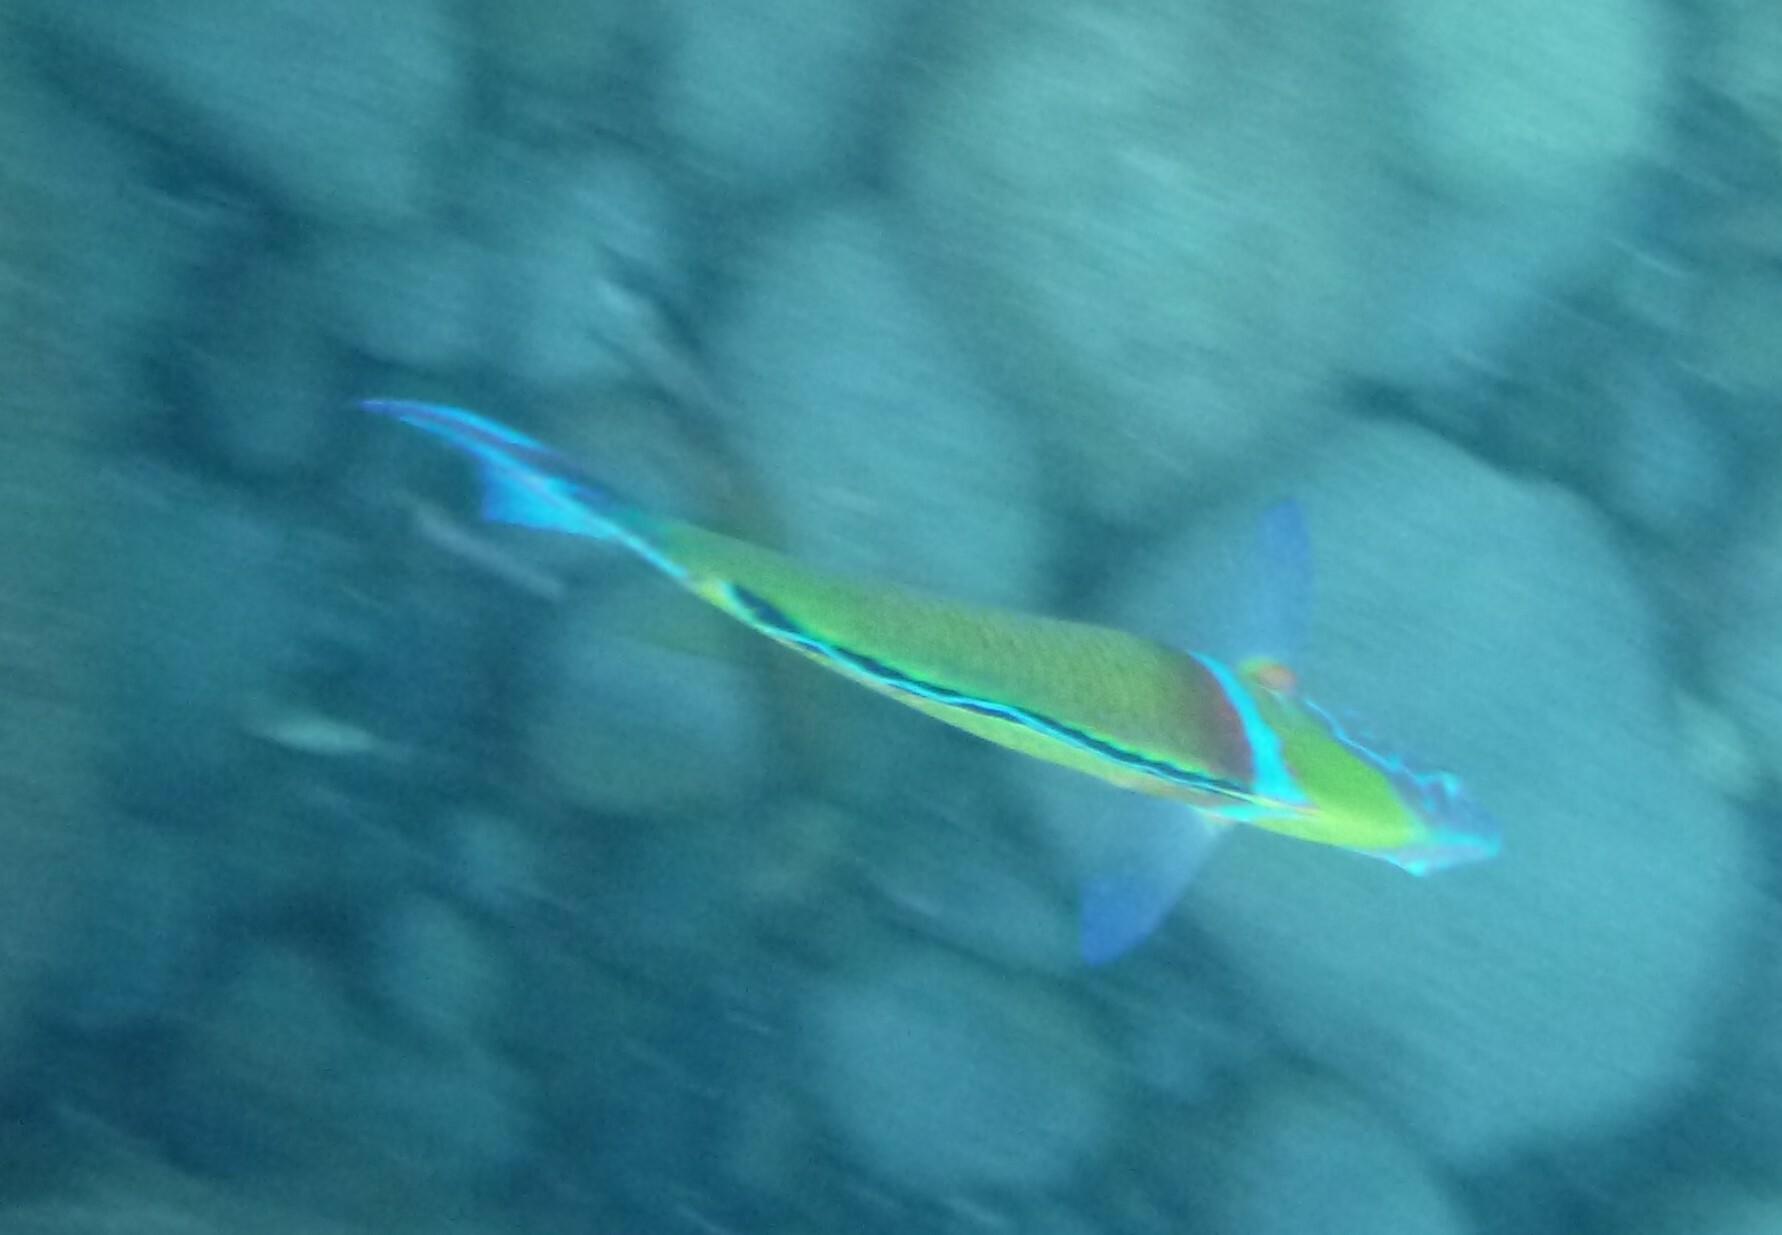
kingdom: Animalia
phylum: Chordata
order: Perciformes
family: Labridae
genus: Thalassoma
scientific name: Thalassoma pavo
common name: Ornate wrasse
